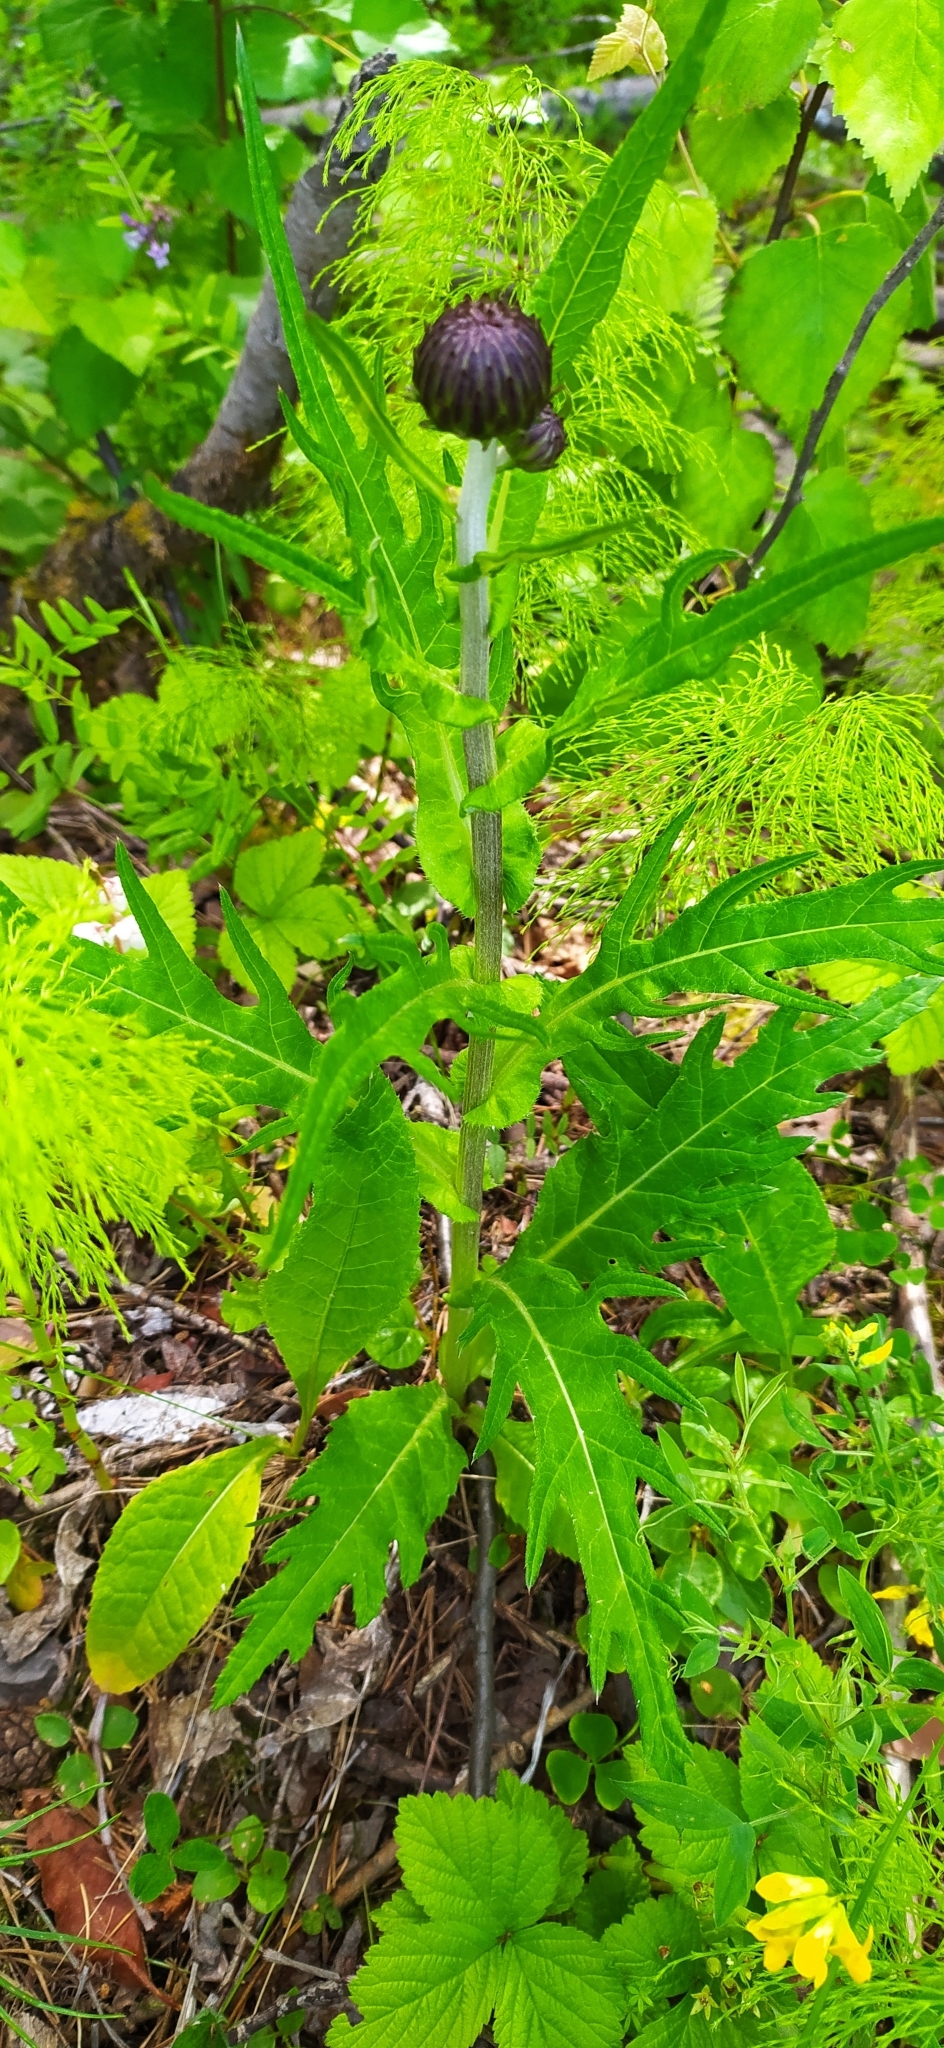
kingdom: Plantae
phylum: Tracheophyta
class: Magnoliopsida
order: Asterales
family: Asteraceae
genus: Cirsium
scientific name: Cirsium heterophyllum
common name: Melancholy thistle
